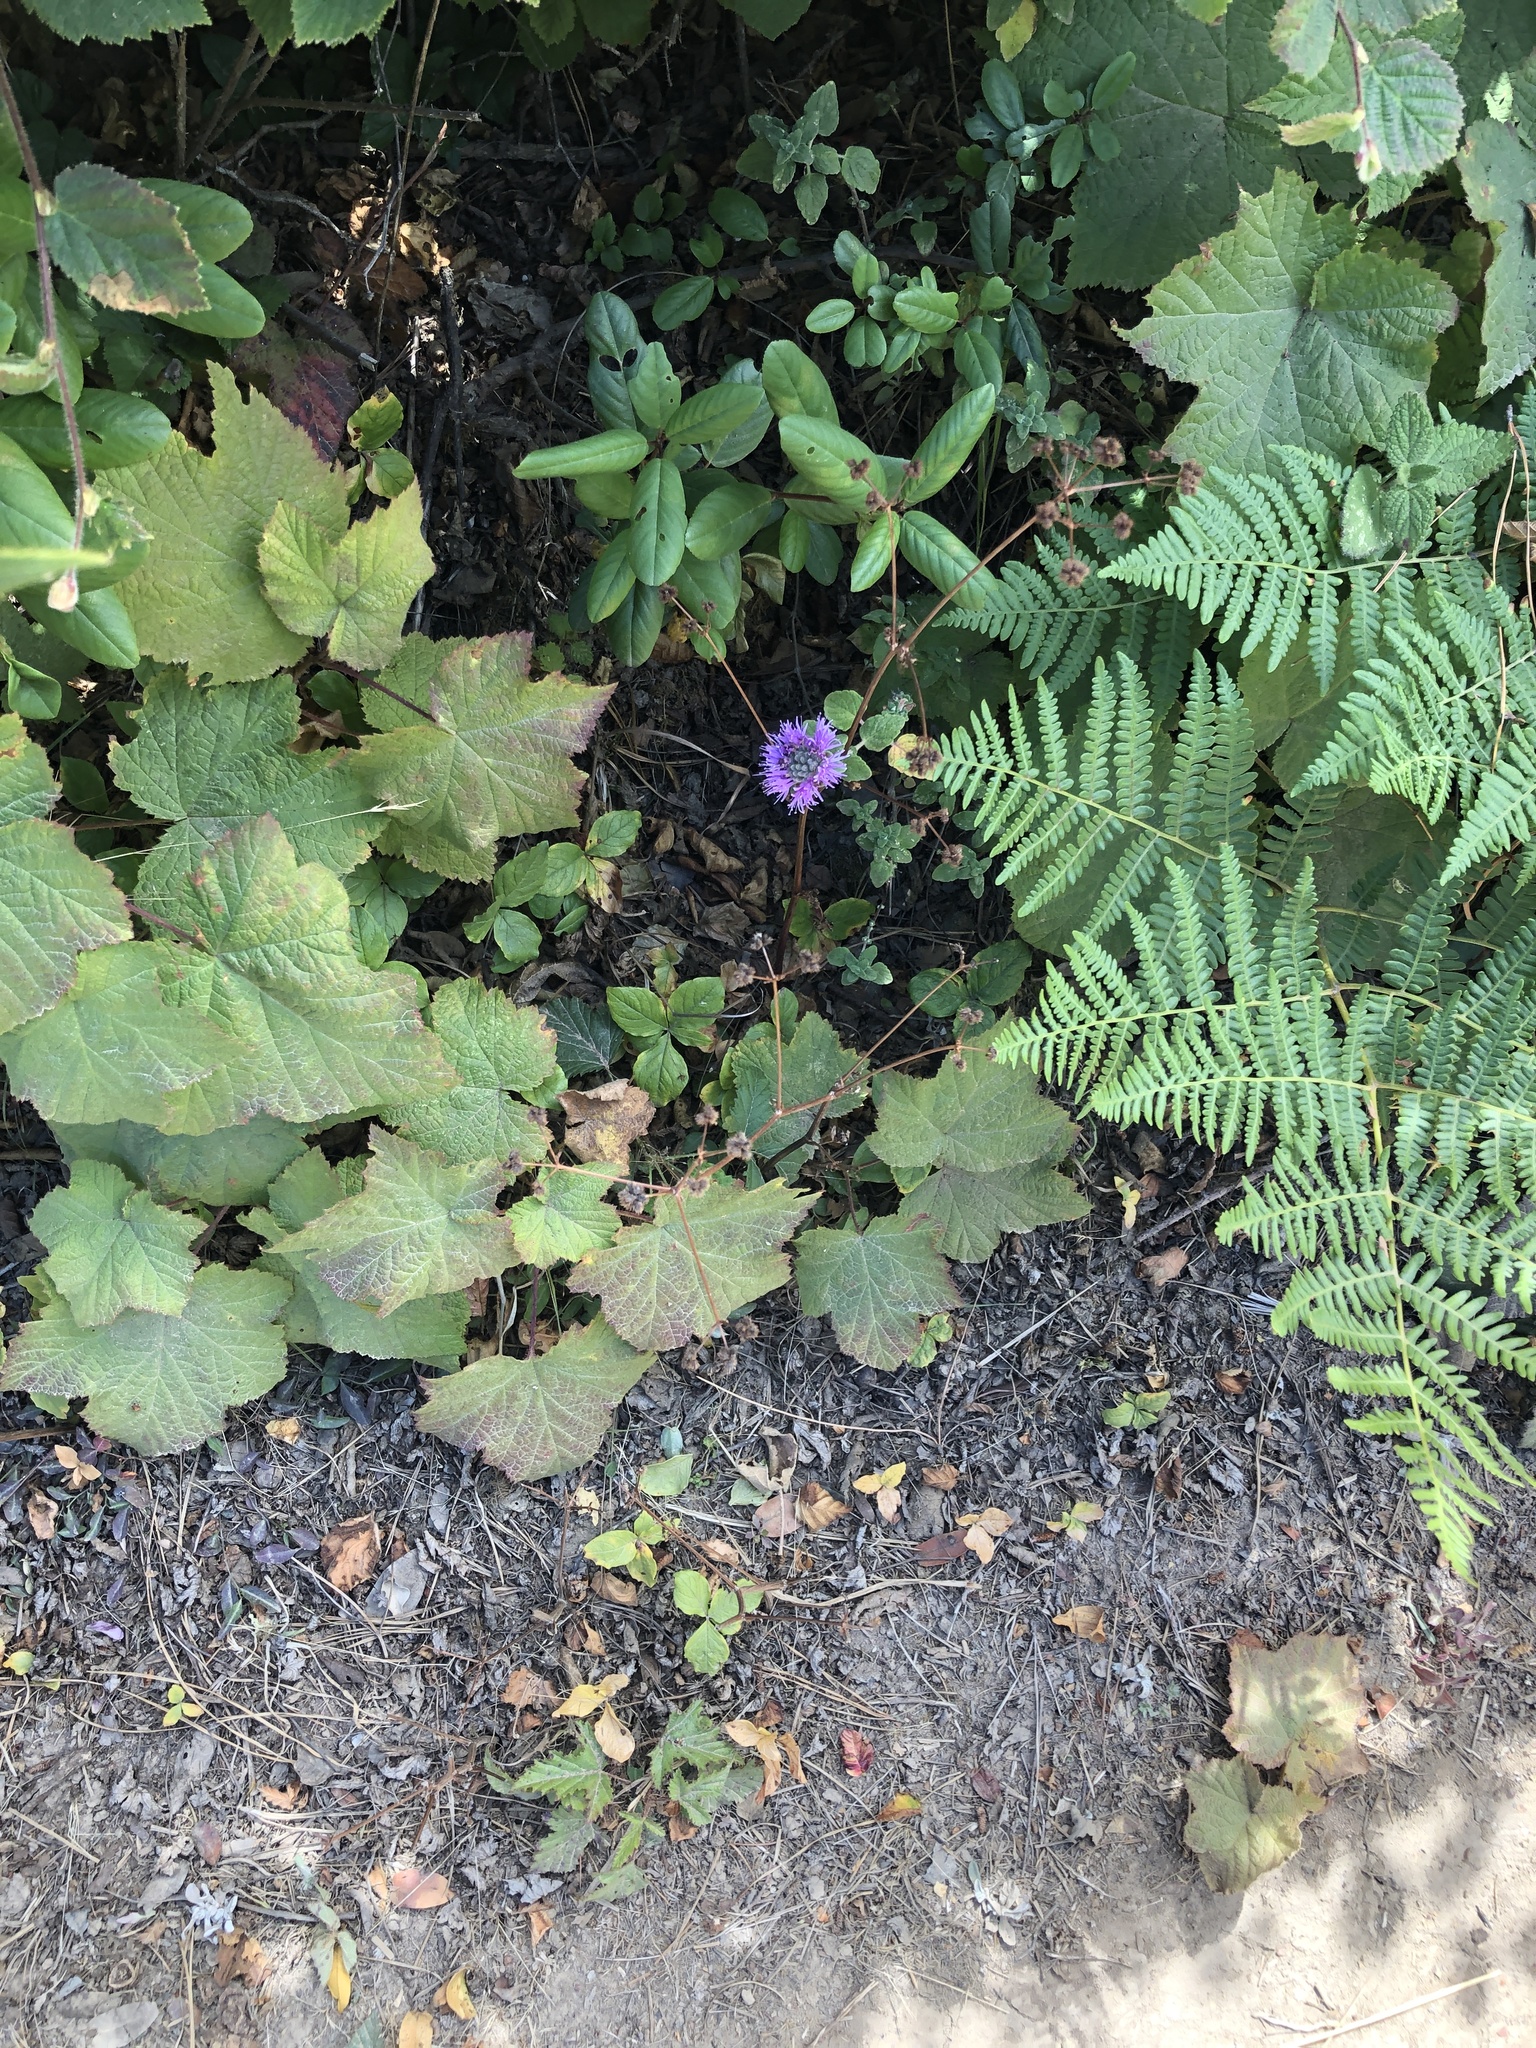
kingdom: Plantae
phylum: Tracheophyta
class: Magnoliopsida
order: Lamiales
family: Lamiaceae
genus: Monardella
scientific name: Monardella odoratissima
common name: Pacific monardella
